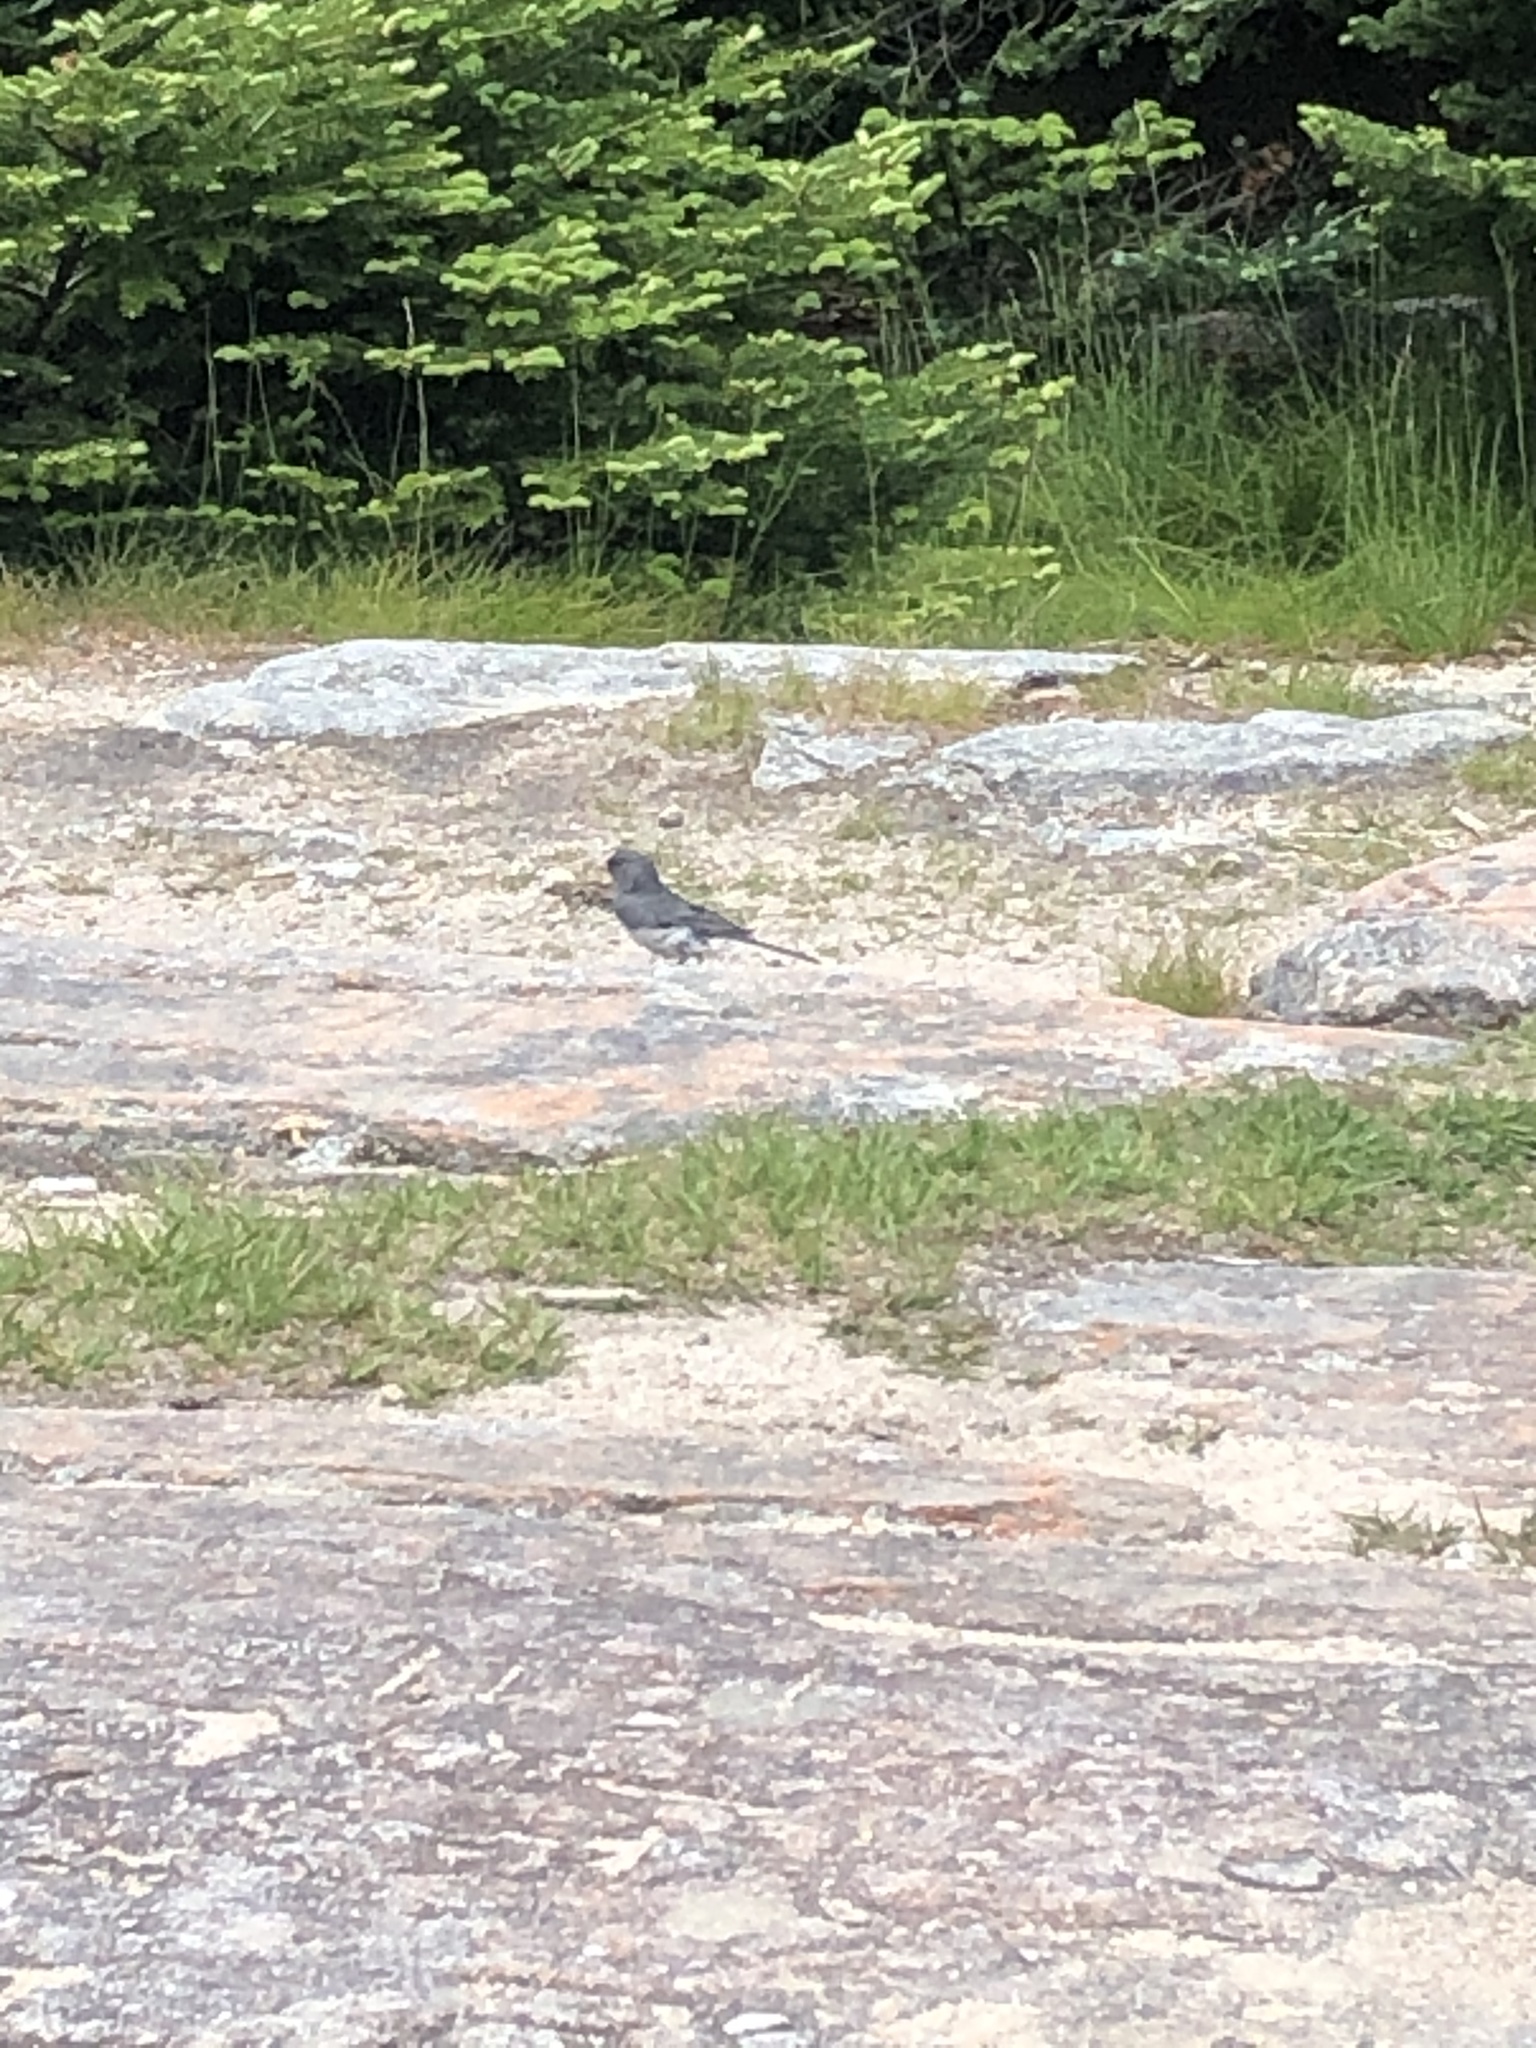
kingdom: Animalia
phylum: Chordata
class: Aves
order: Passeriformes
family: Passerellidae
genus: Junco
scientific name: Junco hyemalis
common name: Dark-eyed junco
